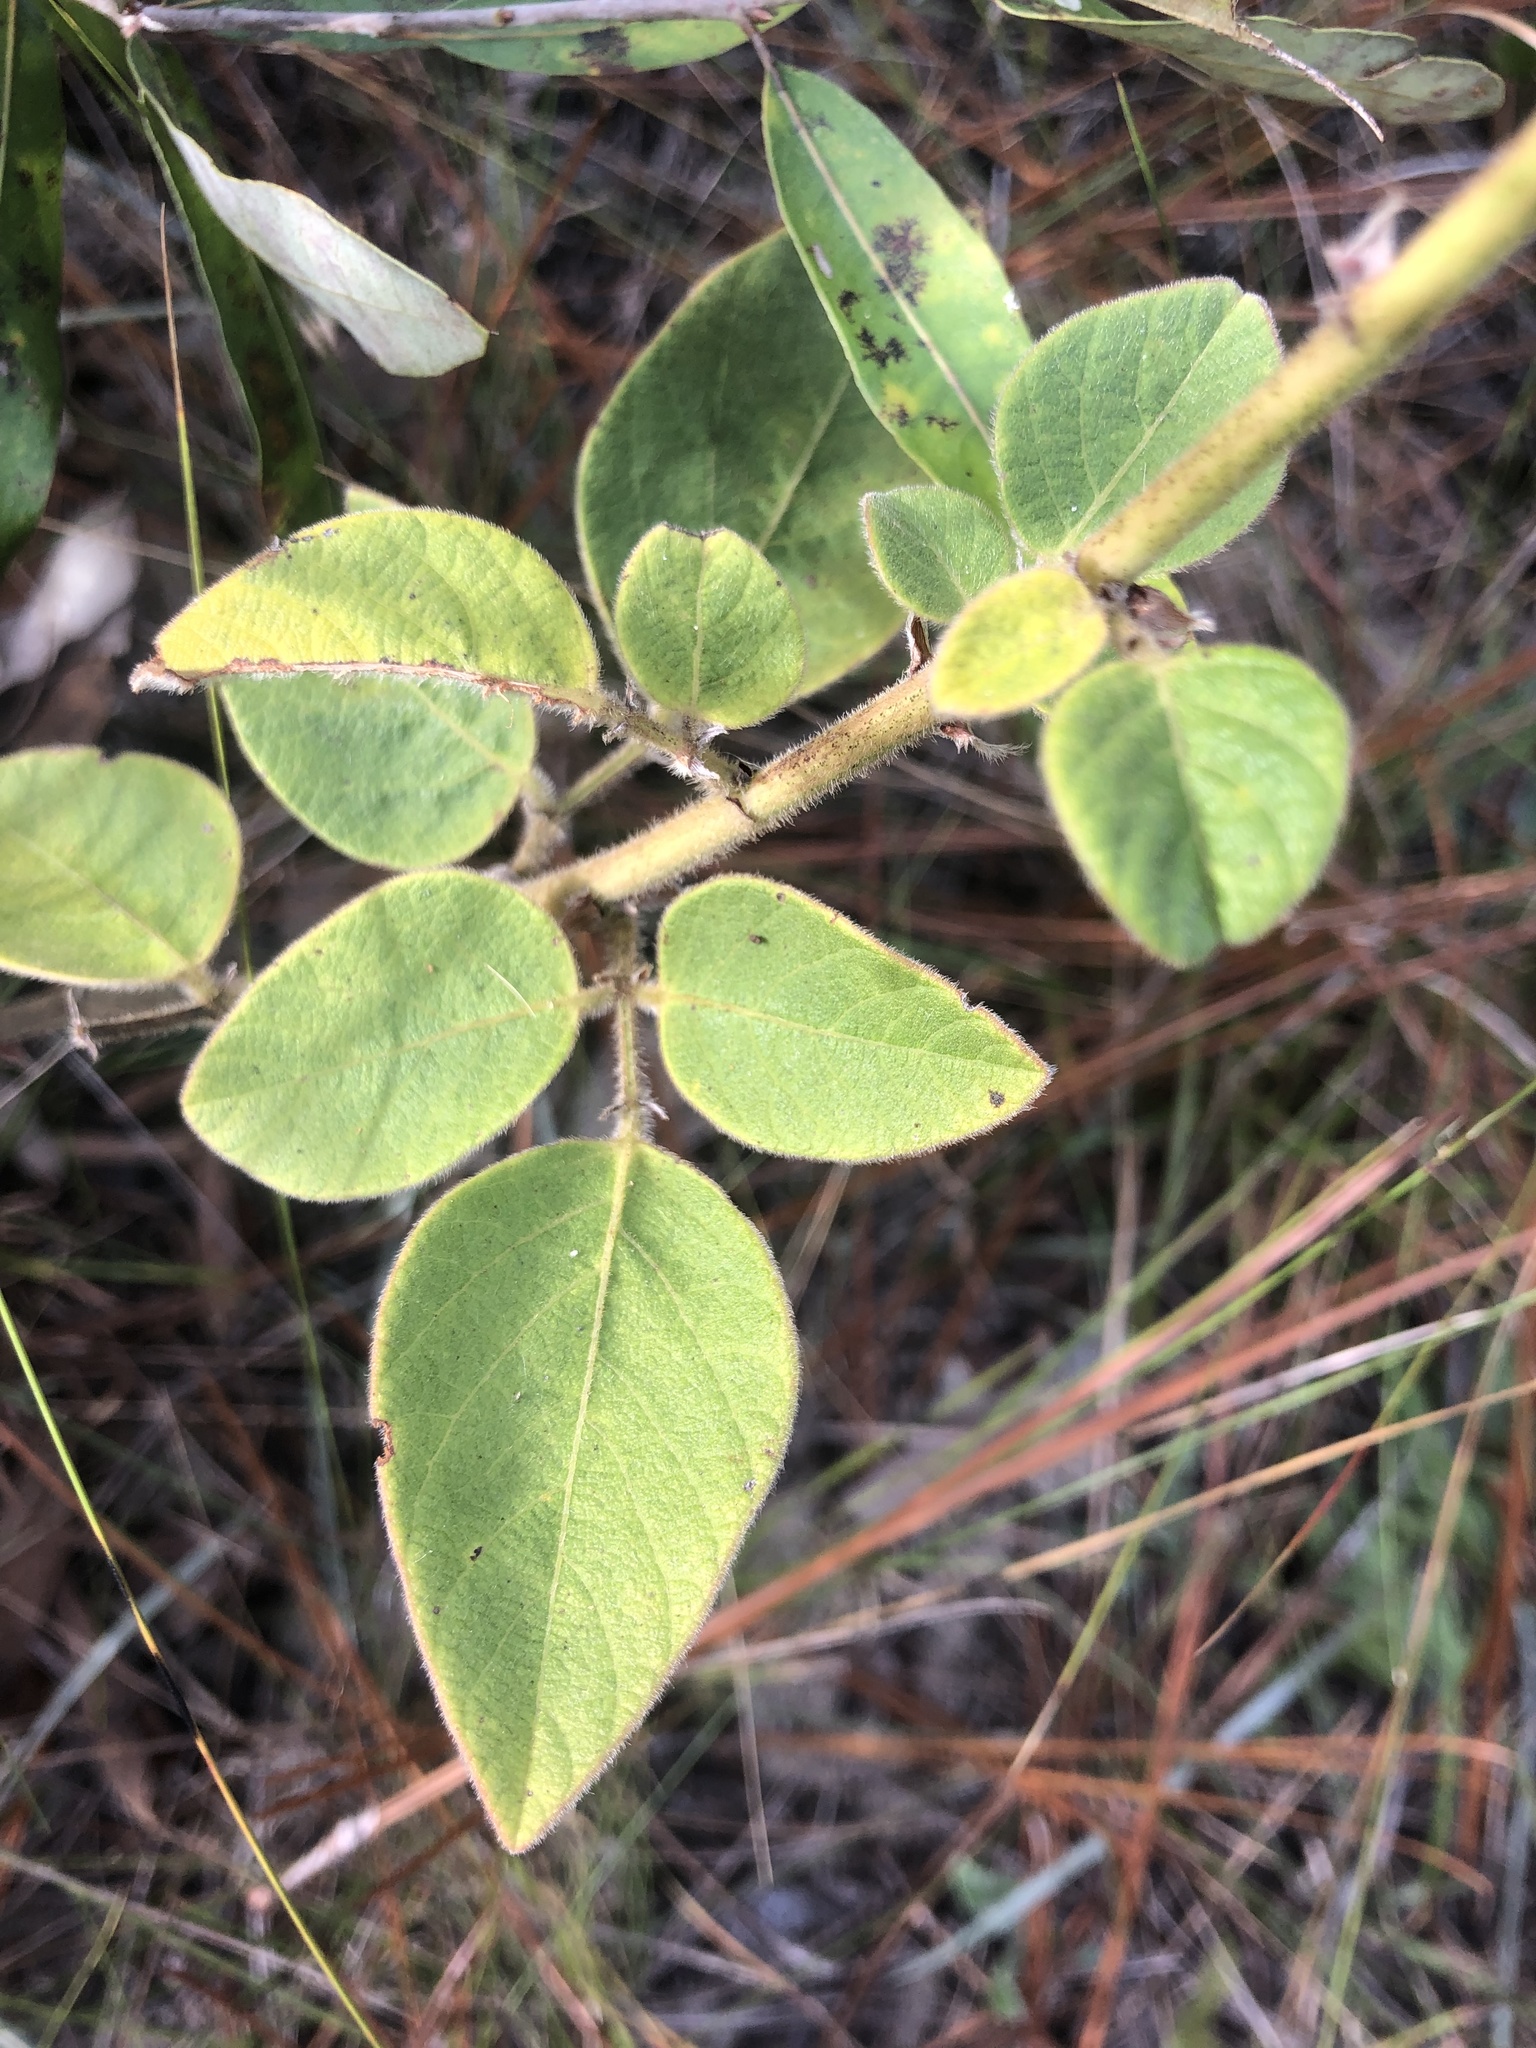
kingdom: Plantae
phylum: Tracheophyta
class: Magnoliopsida
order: Fabales
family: Fabaceae
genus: Desmodium
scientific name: Desmodium nuttallii
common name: Nuttall's tick trefoil
